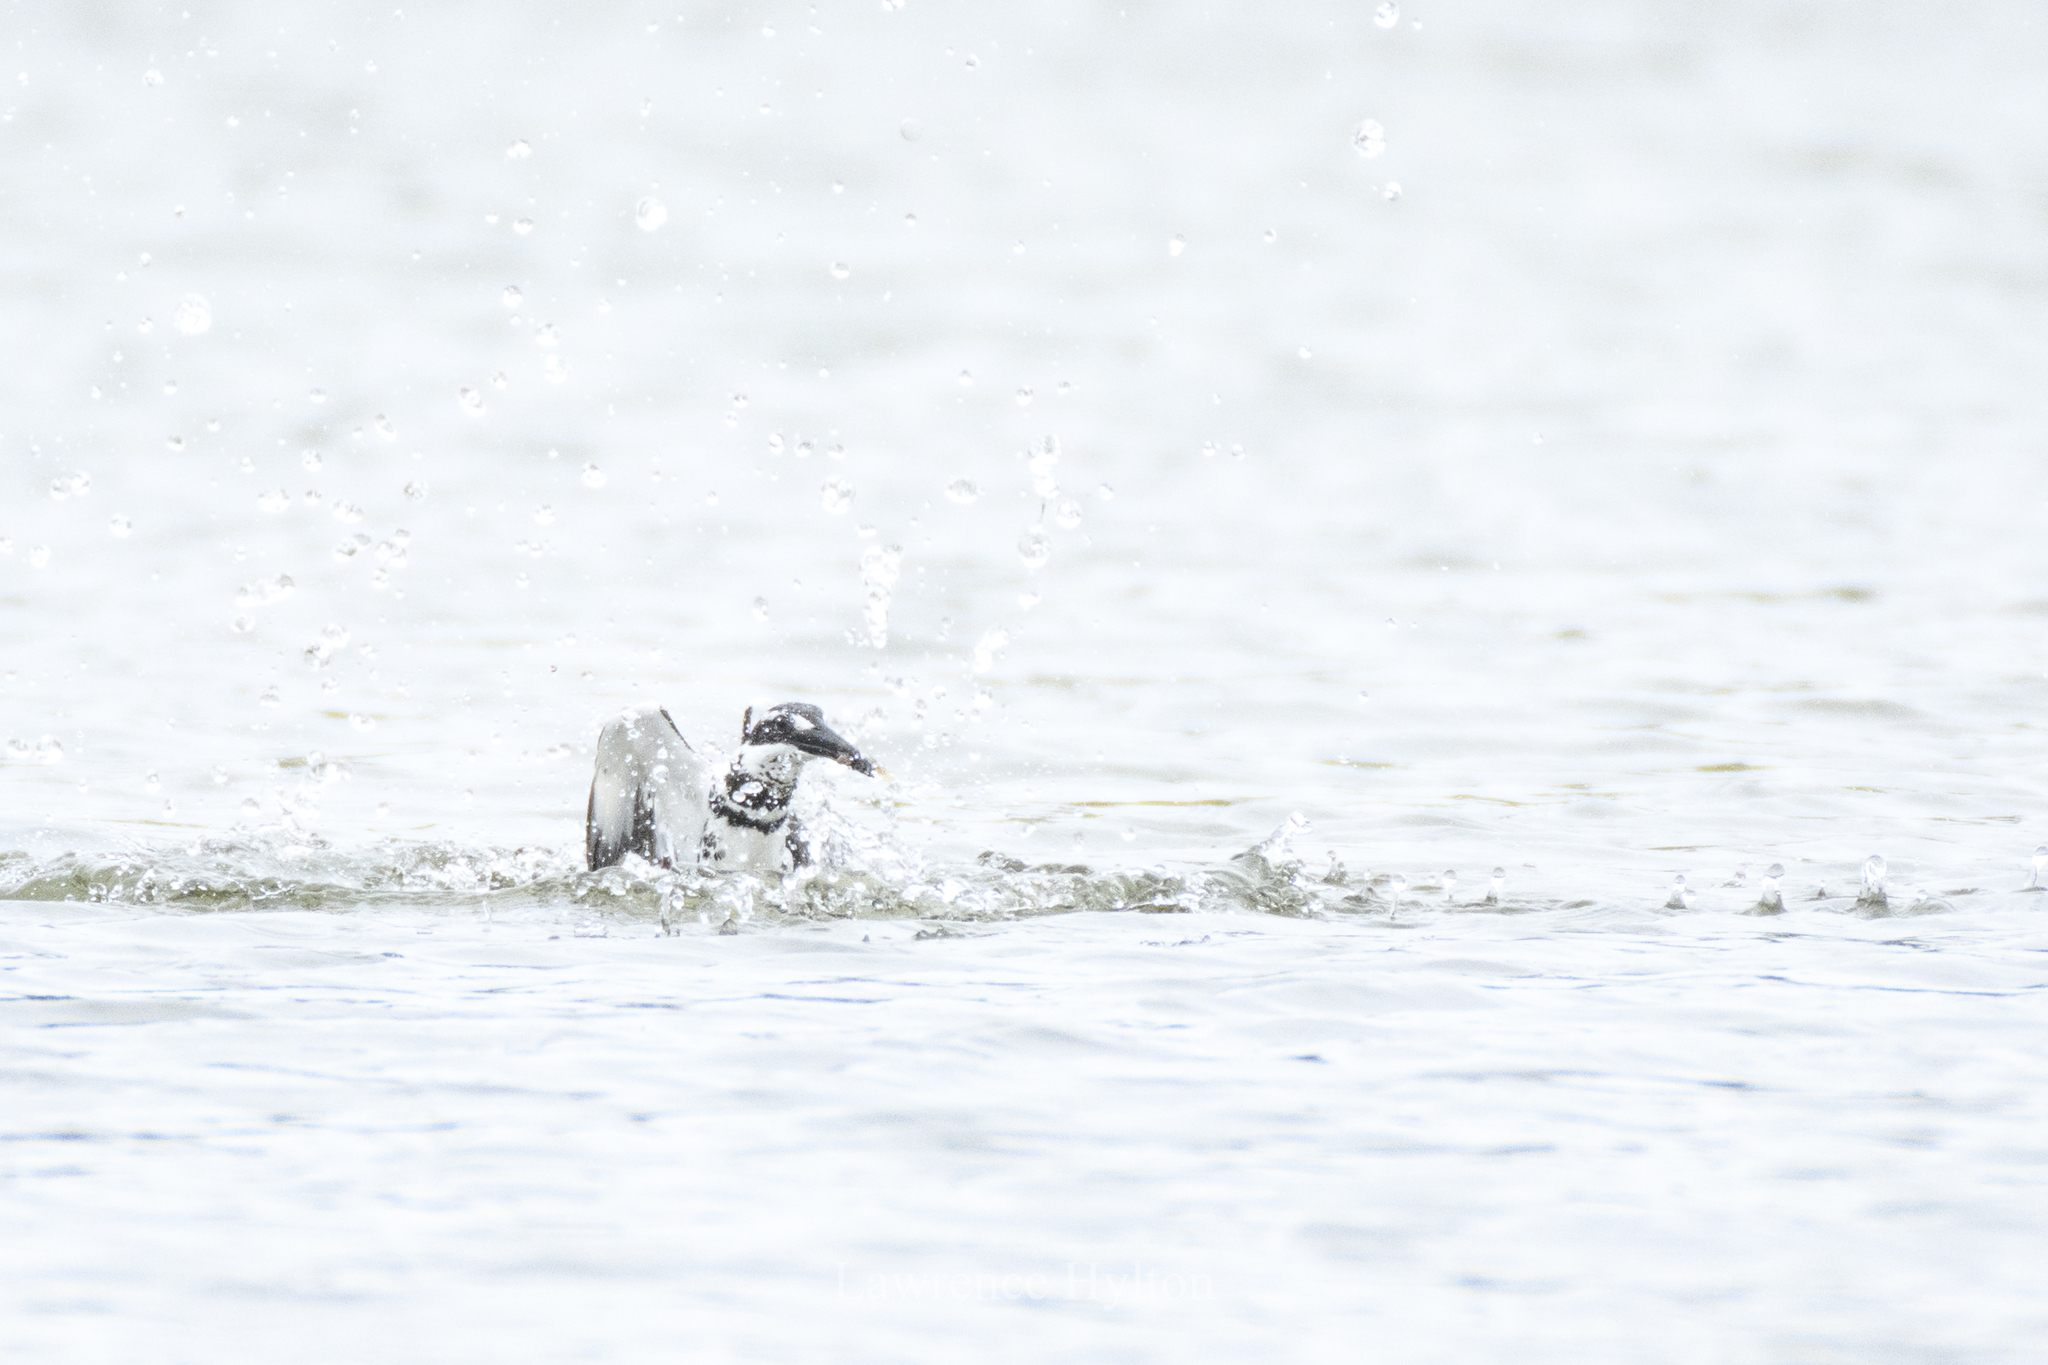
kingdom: Animalia
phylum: Chordata
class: Aves
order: Coraciiformes
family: Alcedinidae
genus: Ceryle
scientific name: Ceryle rudis
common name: Pied kingfisher
